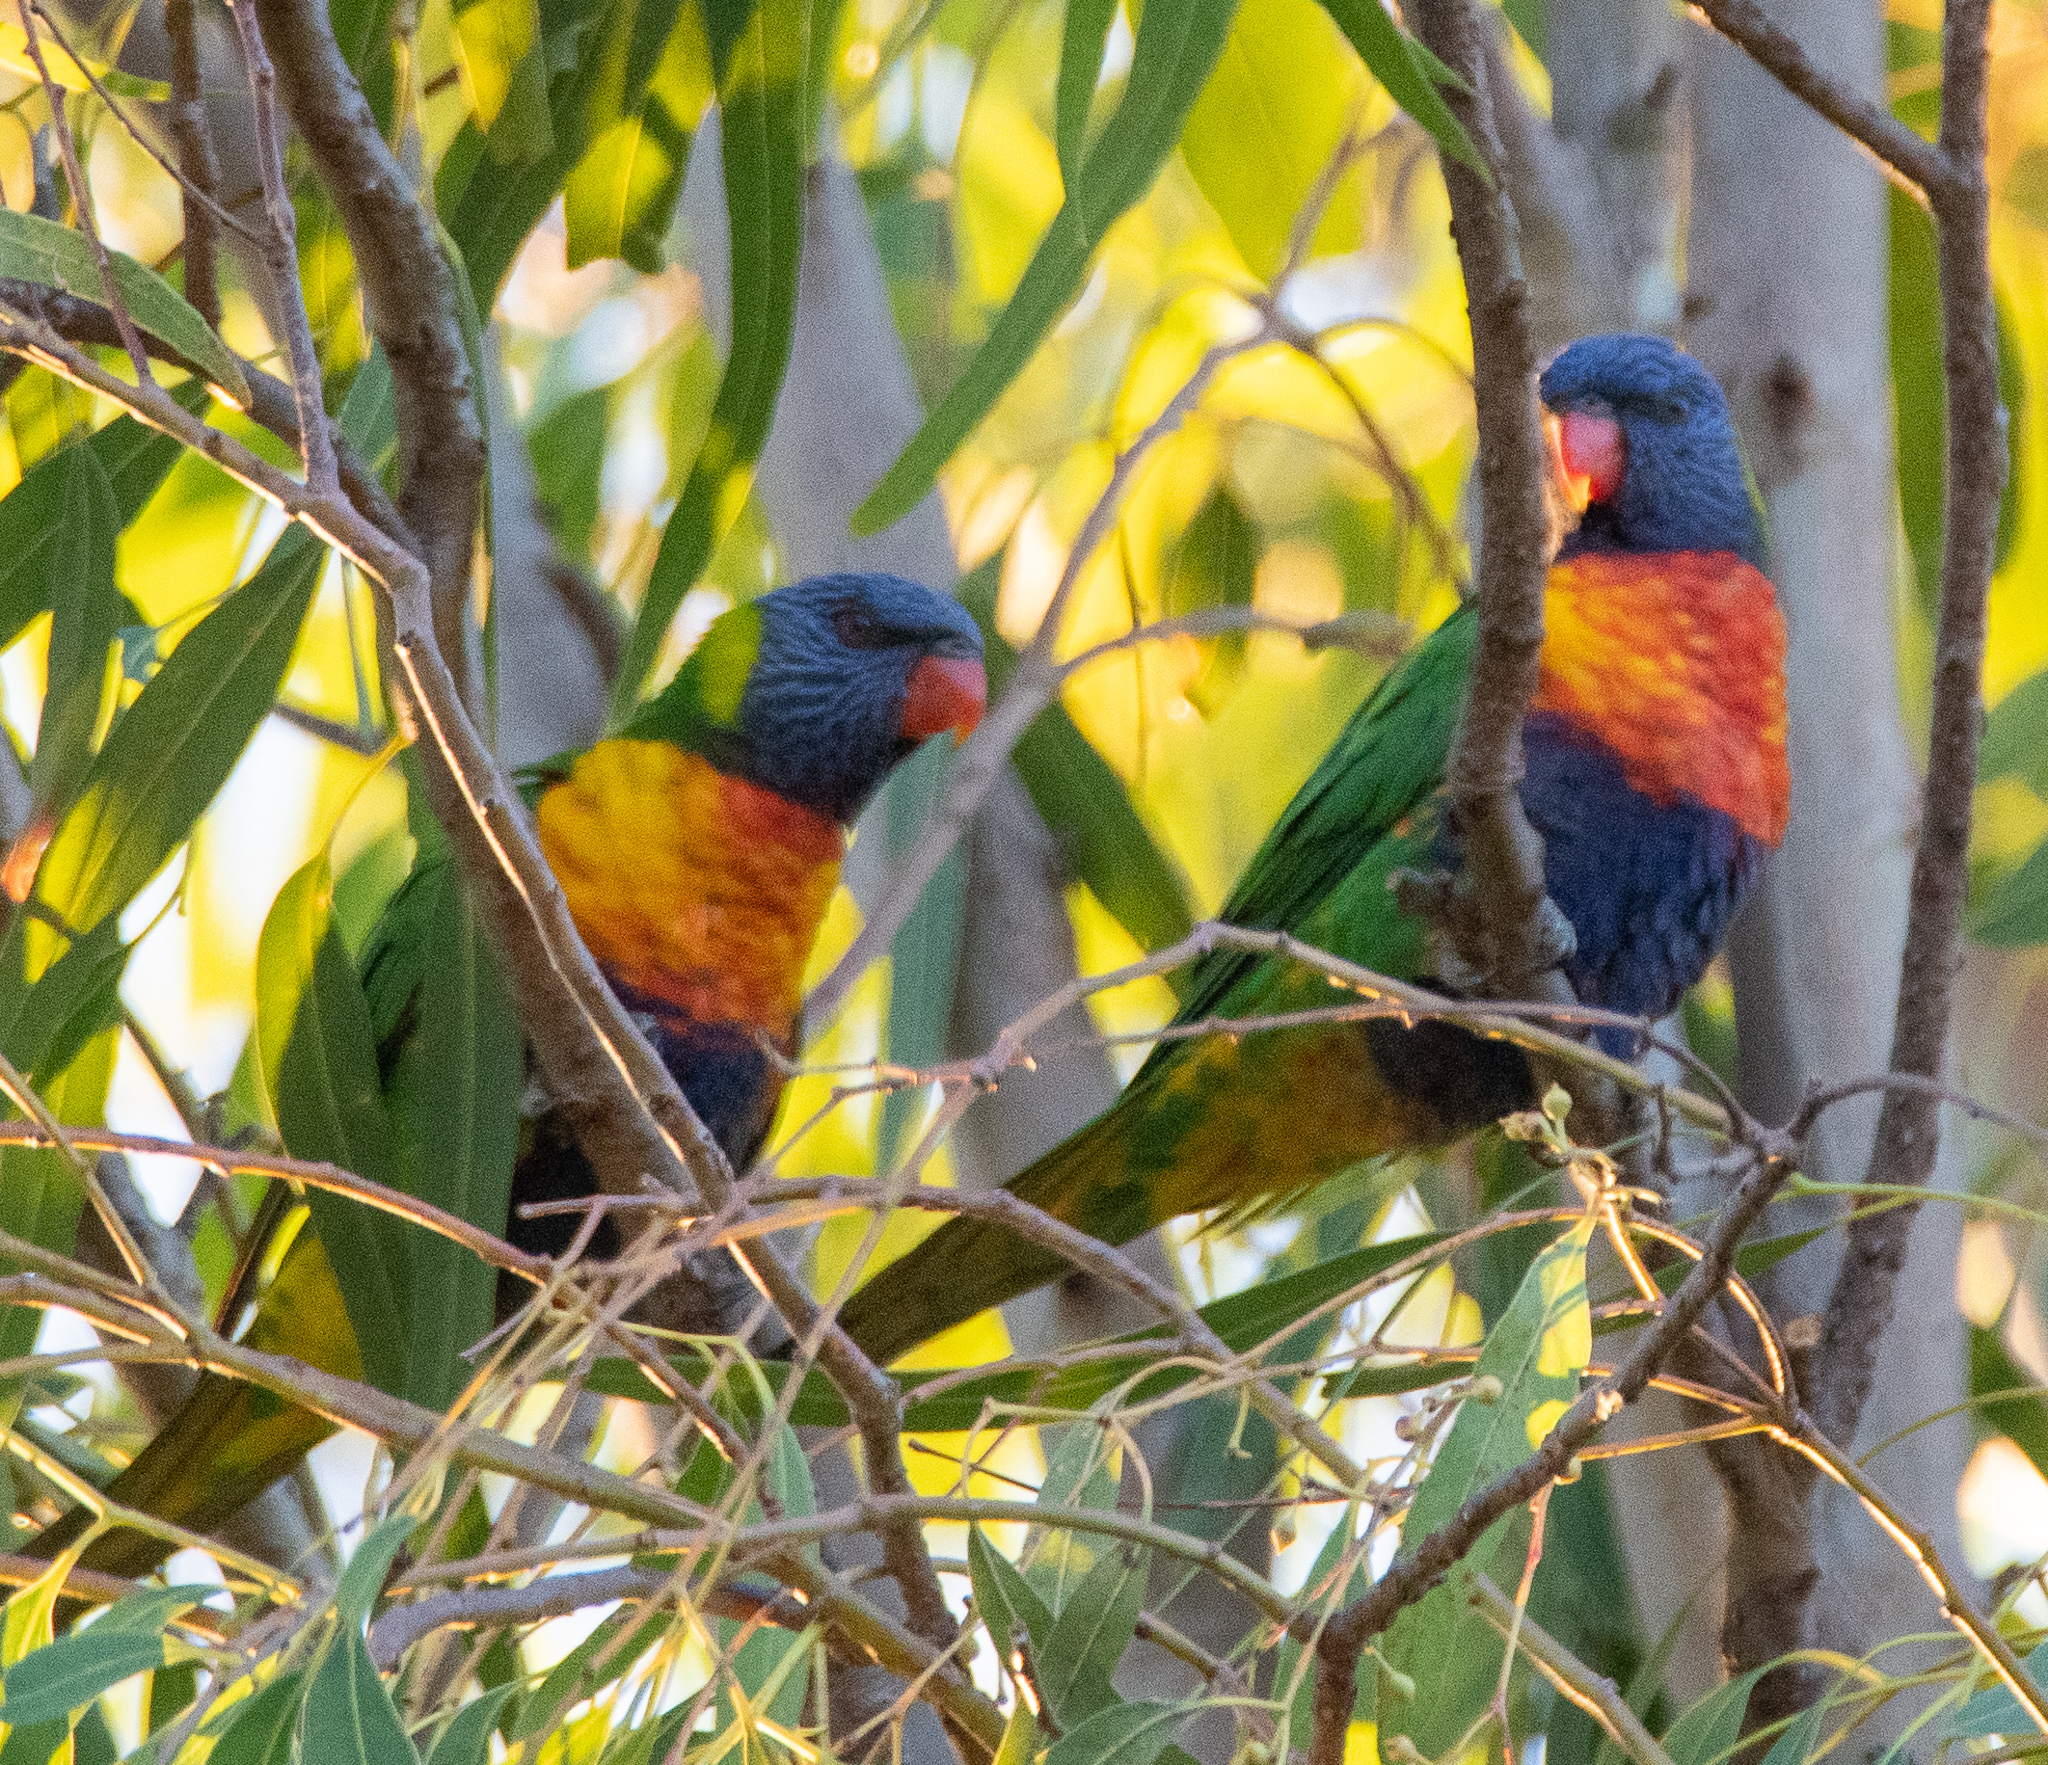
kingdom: Animalia
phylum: Chordata
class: Aves
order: Psittaciformes
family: Psittacidae
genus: Trichoglossus
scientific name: Trichoglossus haematodus
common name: Coconut lorikeet
